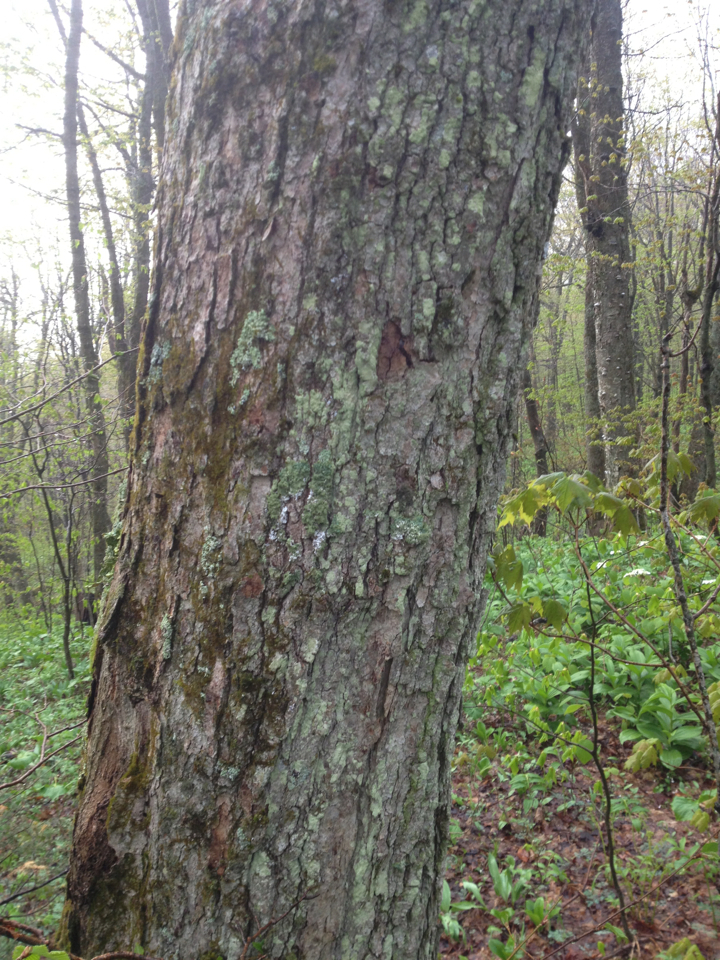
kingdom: Plantae
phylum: Tracheophyta
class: Magnoliopsida
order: Sapindales
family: Sapindaceae
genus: Acer
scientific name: Acer saccharum
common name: Sugar maple
